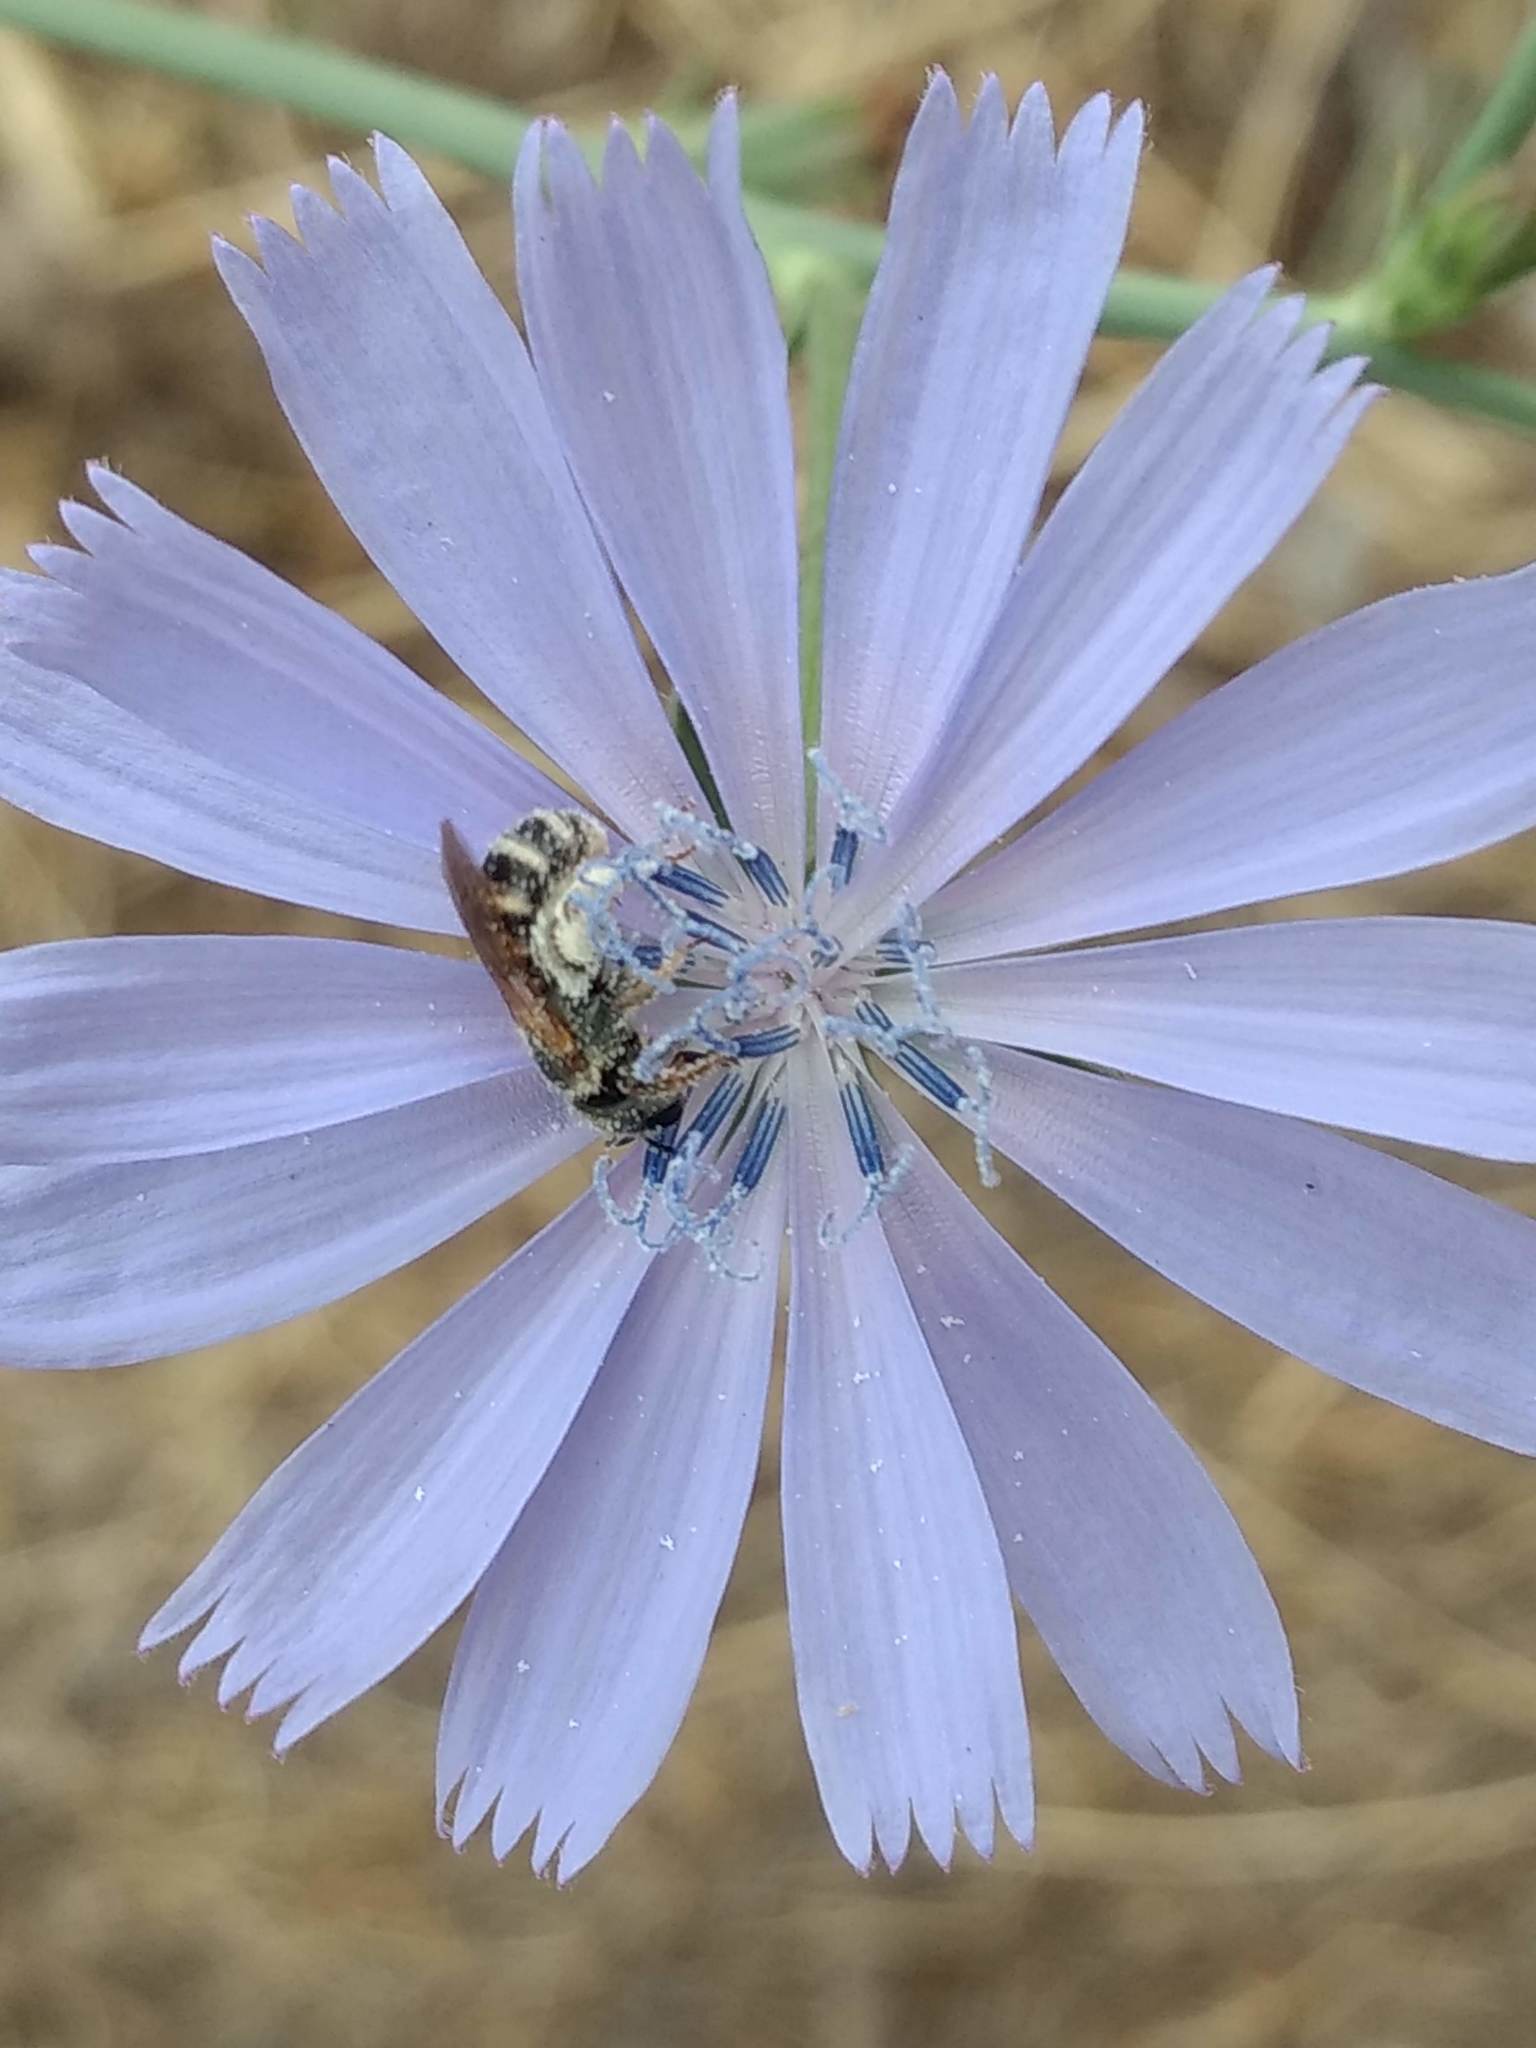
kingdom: Plantae
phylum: Tracheophyta
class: Magnoliopsida
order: Asterales
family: Asteraceae
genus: Cichorium
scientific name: Cichorium intybus
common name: Chicory
